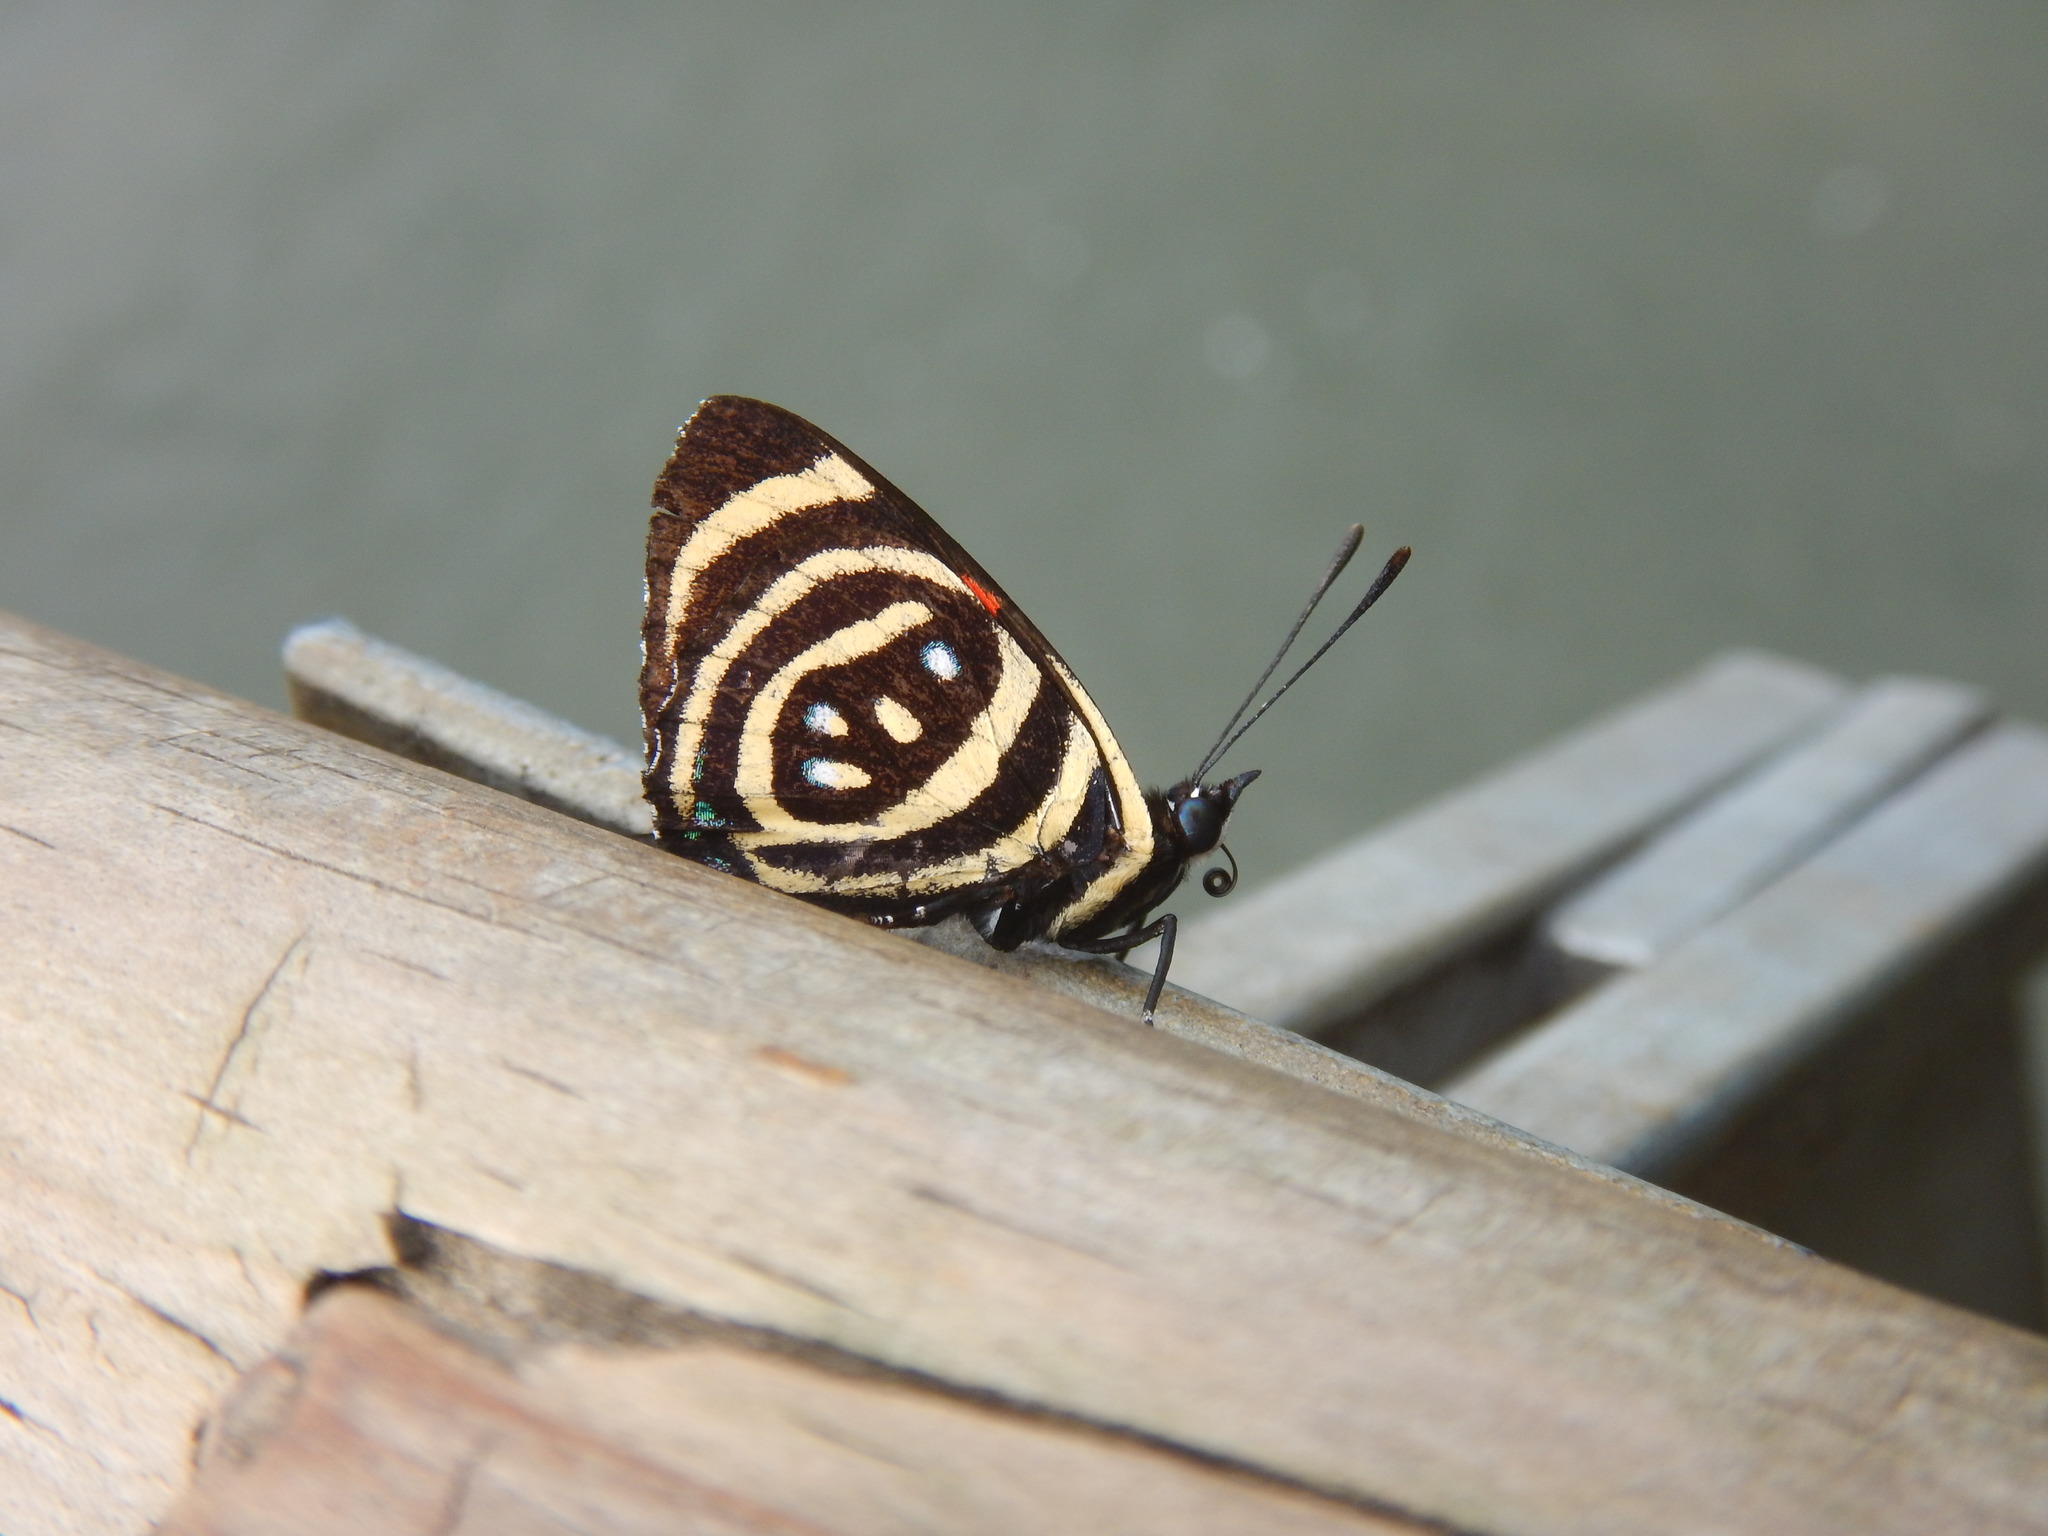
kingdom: Animalia
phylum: Arthropoda
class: Insecta
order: Lepidoptera
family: Nymphalidae
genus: Catagramma
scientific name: Catagramma Callicore hydaspes
